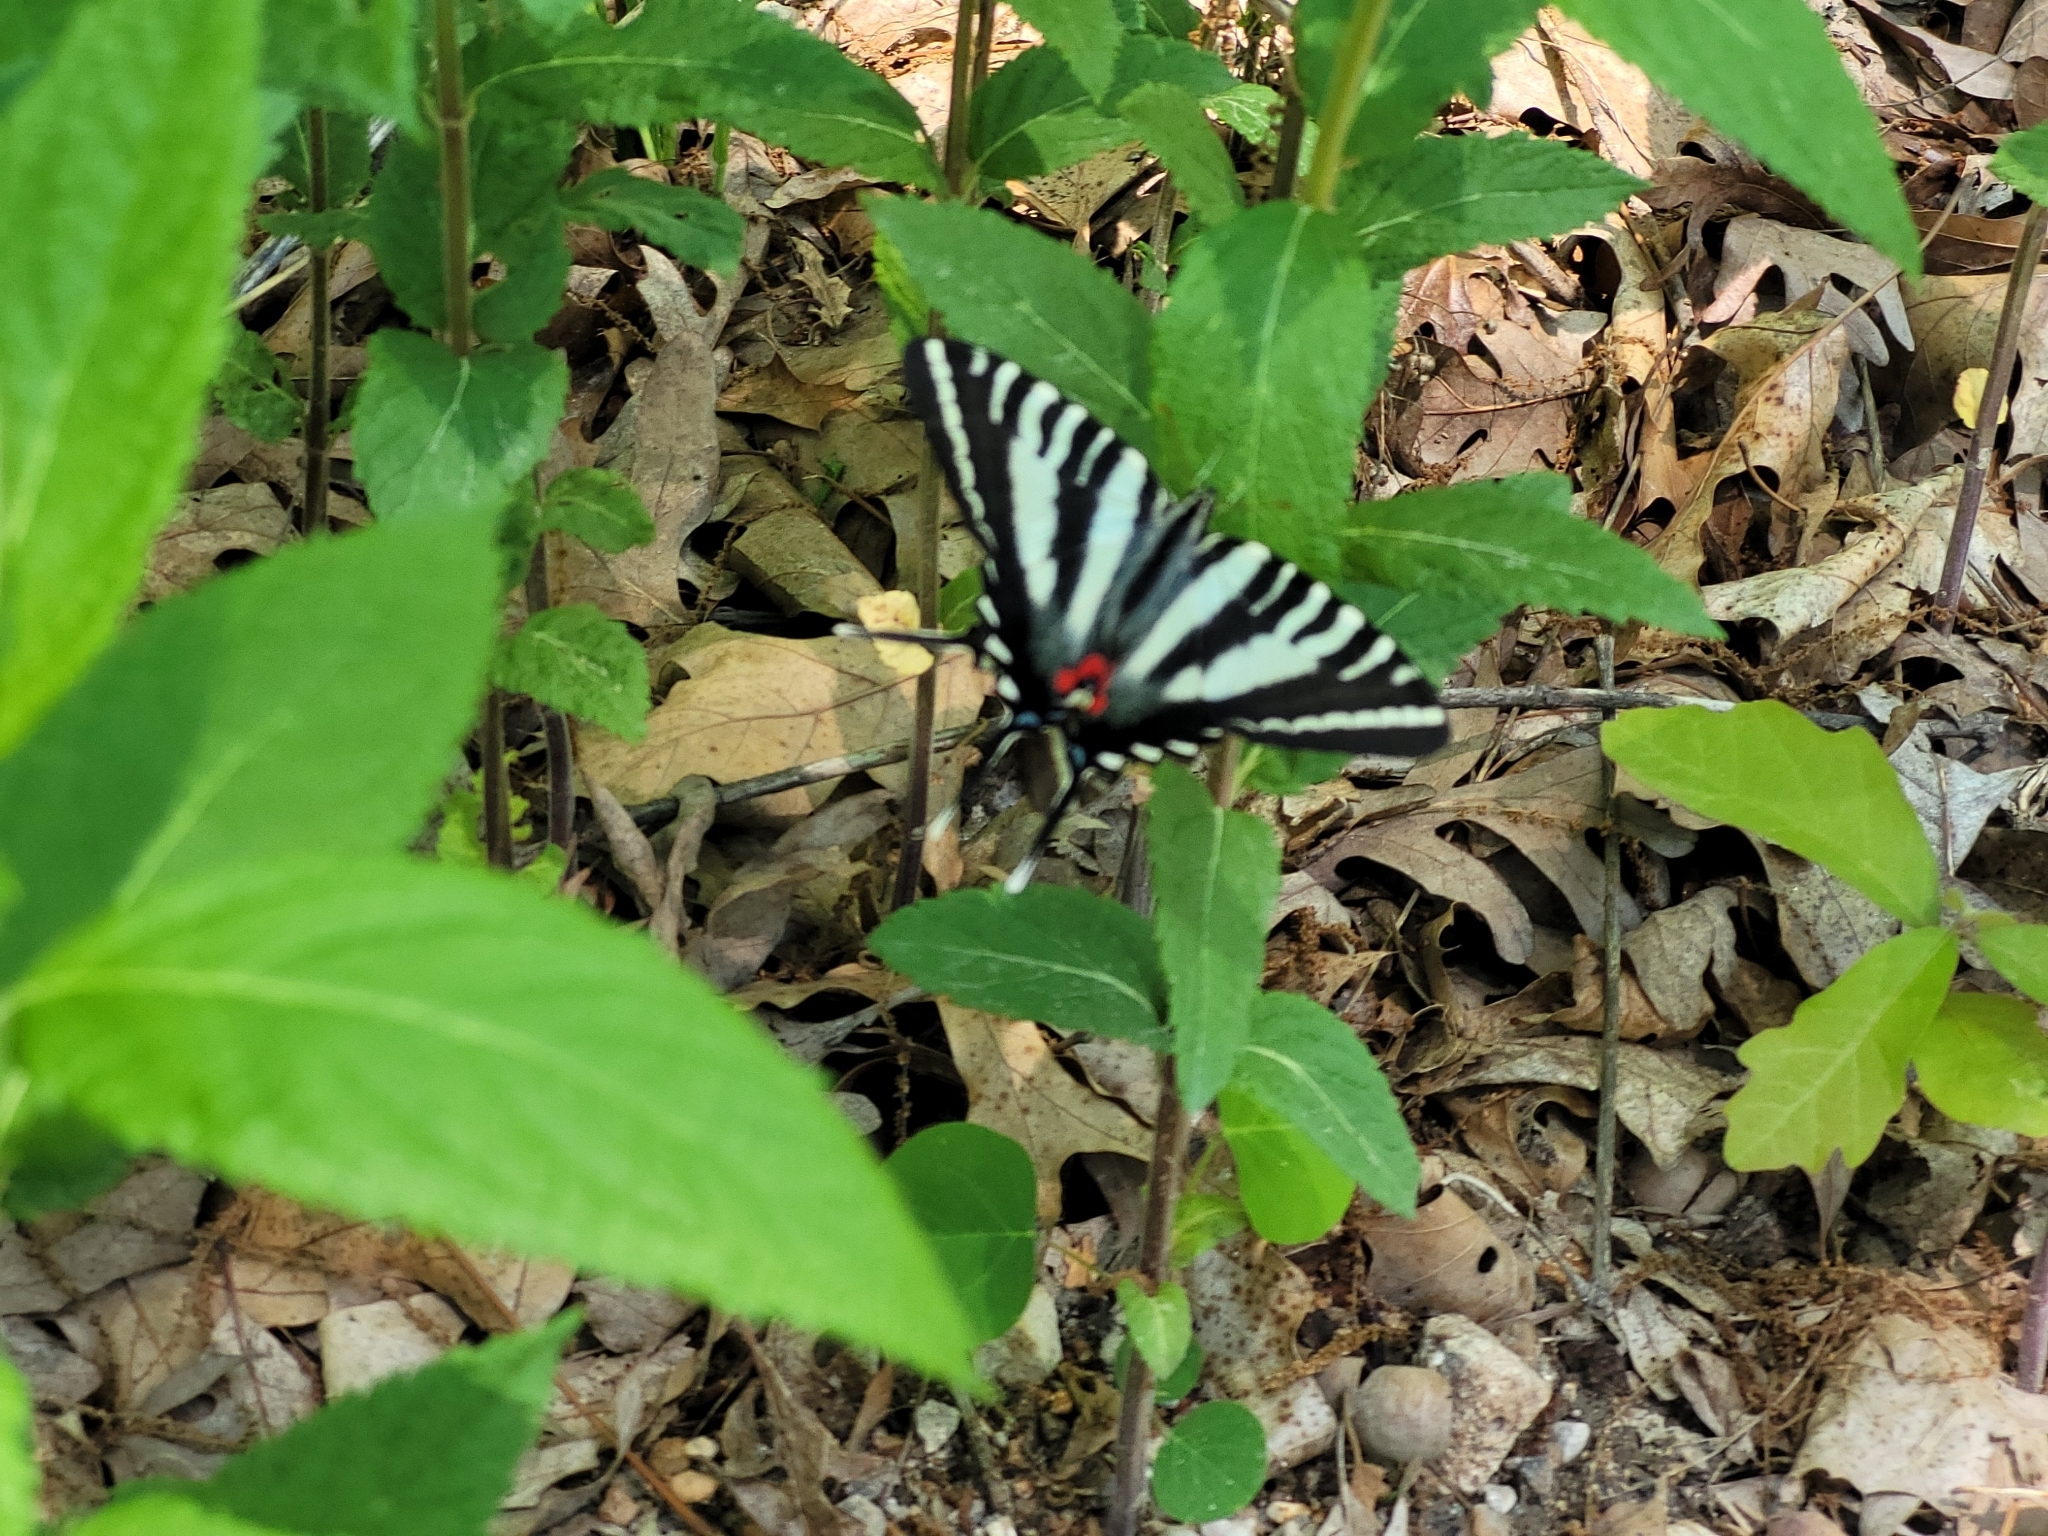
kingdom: Animalia
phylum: Arthropoda
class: Insecta
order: Lepidoptera
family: Papilionidae
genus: Protographium
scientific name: Protographium marcellus
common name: Zebra swallowtail
